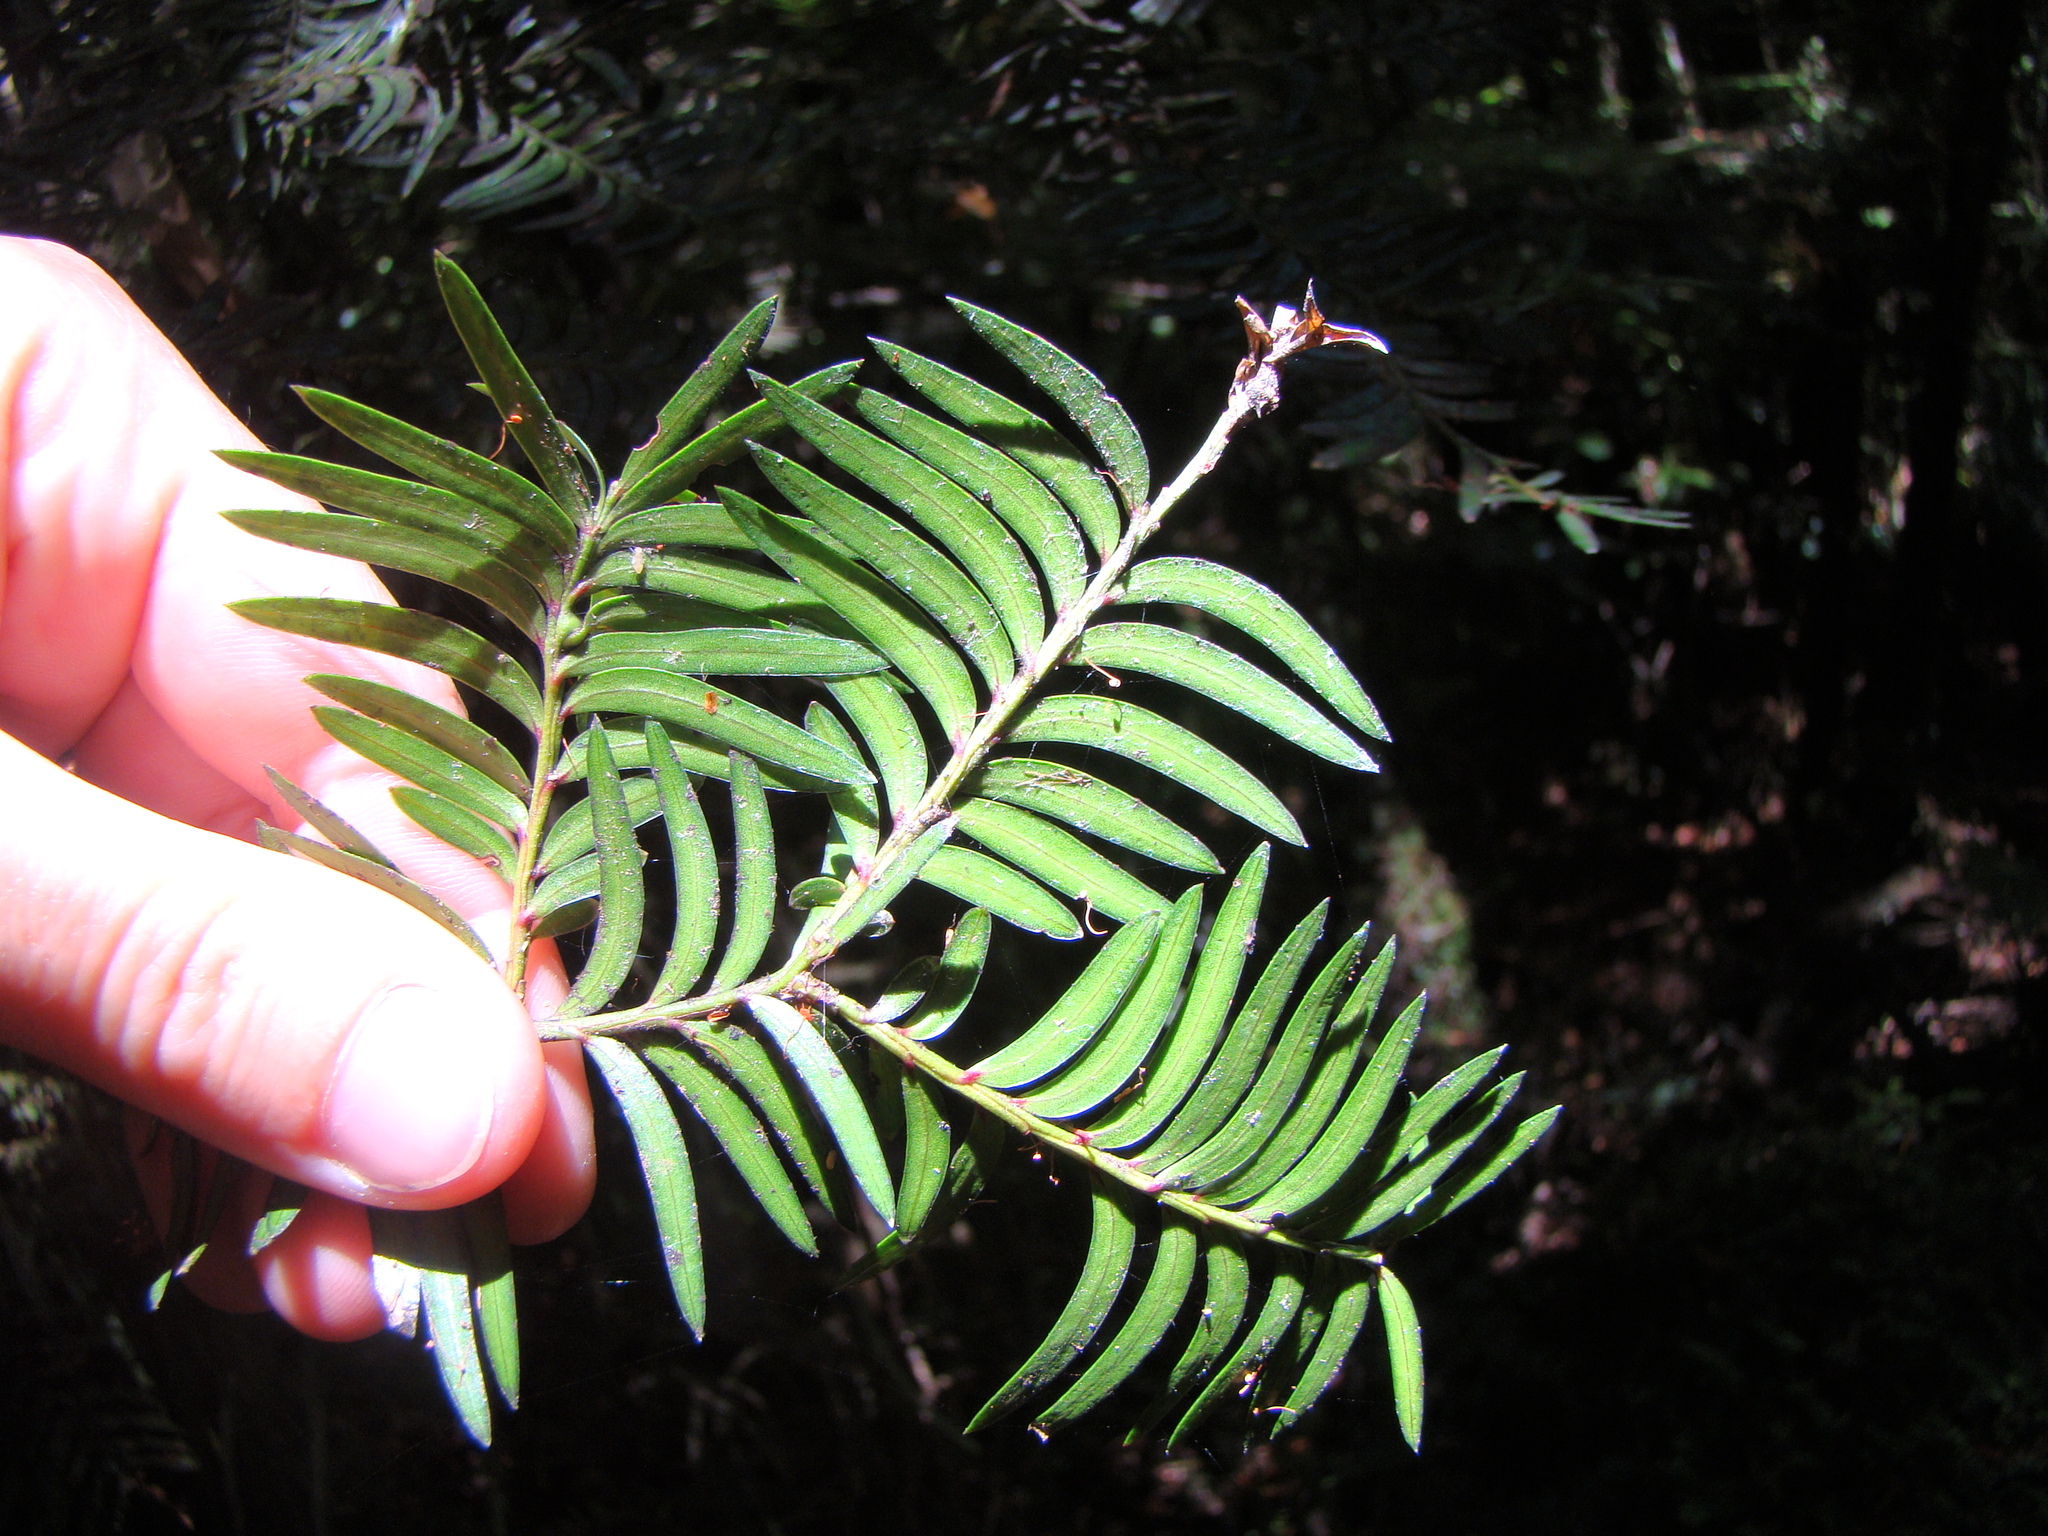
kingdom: Plantae
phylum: Tracheophyta
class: Pinopsida
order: Pinales
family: Podocarpaceae
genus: Prumnopitys
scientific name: Prumnopitys ferruginea
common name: Brown pine
